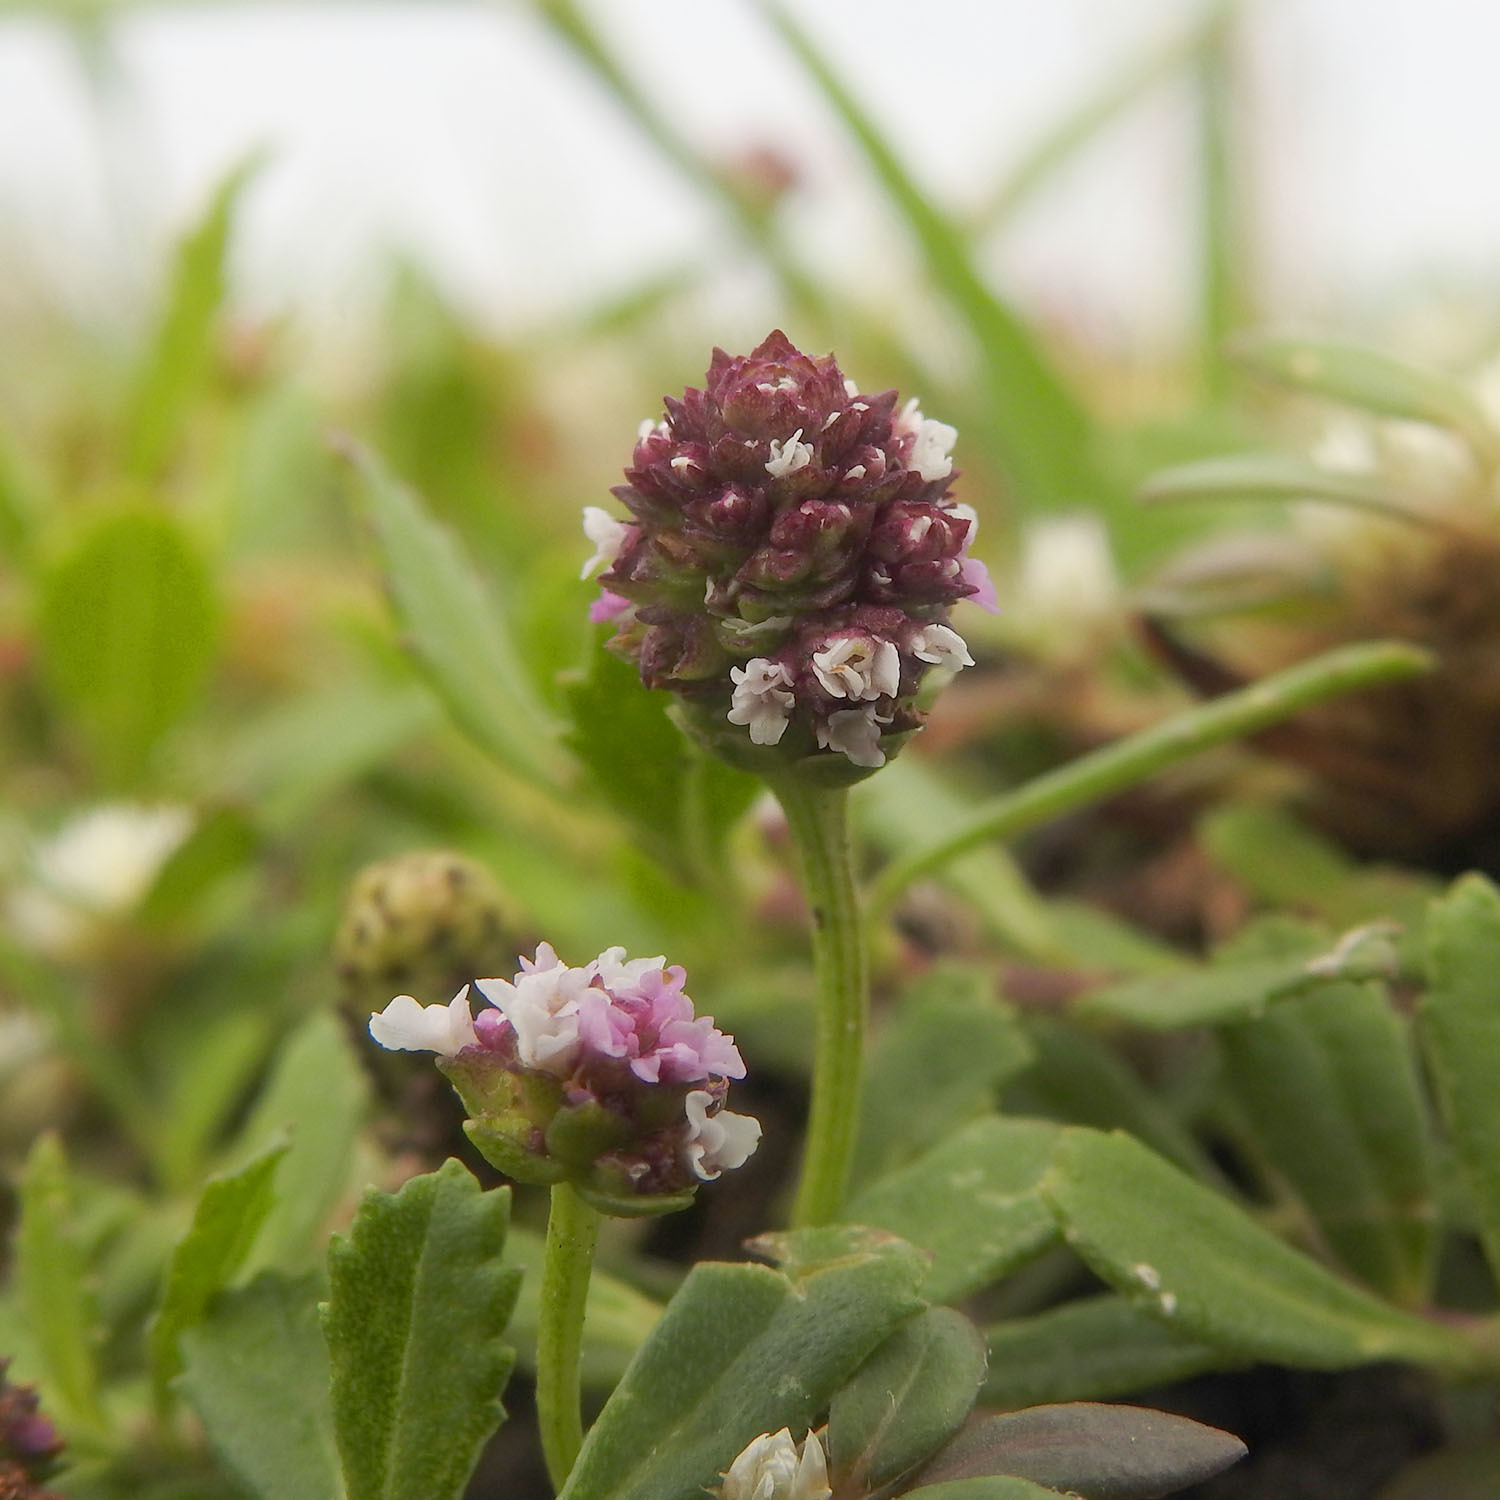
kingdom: Plantae
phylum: Tracheophyta
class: Magnoliopsida
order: Lamiales
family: Verbenaceae
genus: Phyla
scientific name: Phyla nodiflora
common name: Frogfruit
